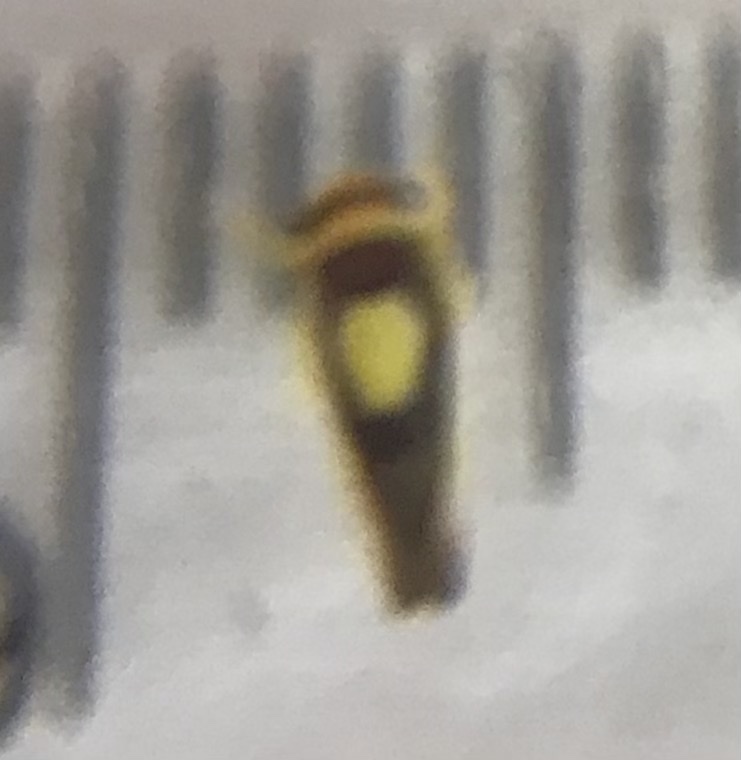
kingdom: Animalia
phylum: Arthropoda
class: Insecta
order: Hemiptera
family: Cicadellidae
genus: Colladonus
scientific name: Colladonus clitellarius
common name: The saddleback leafhopper
